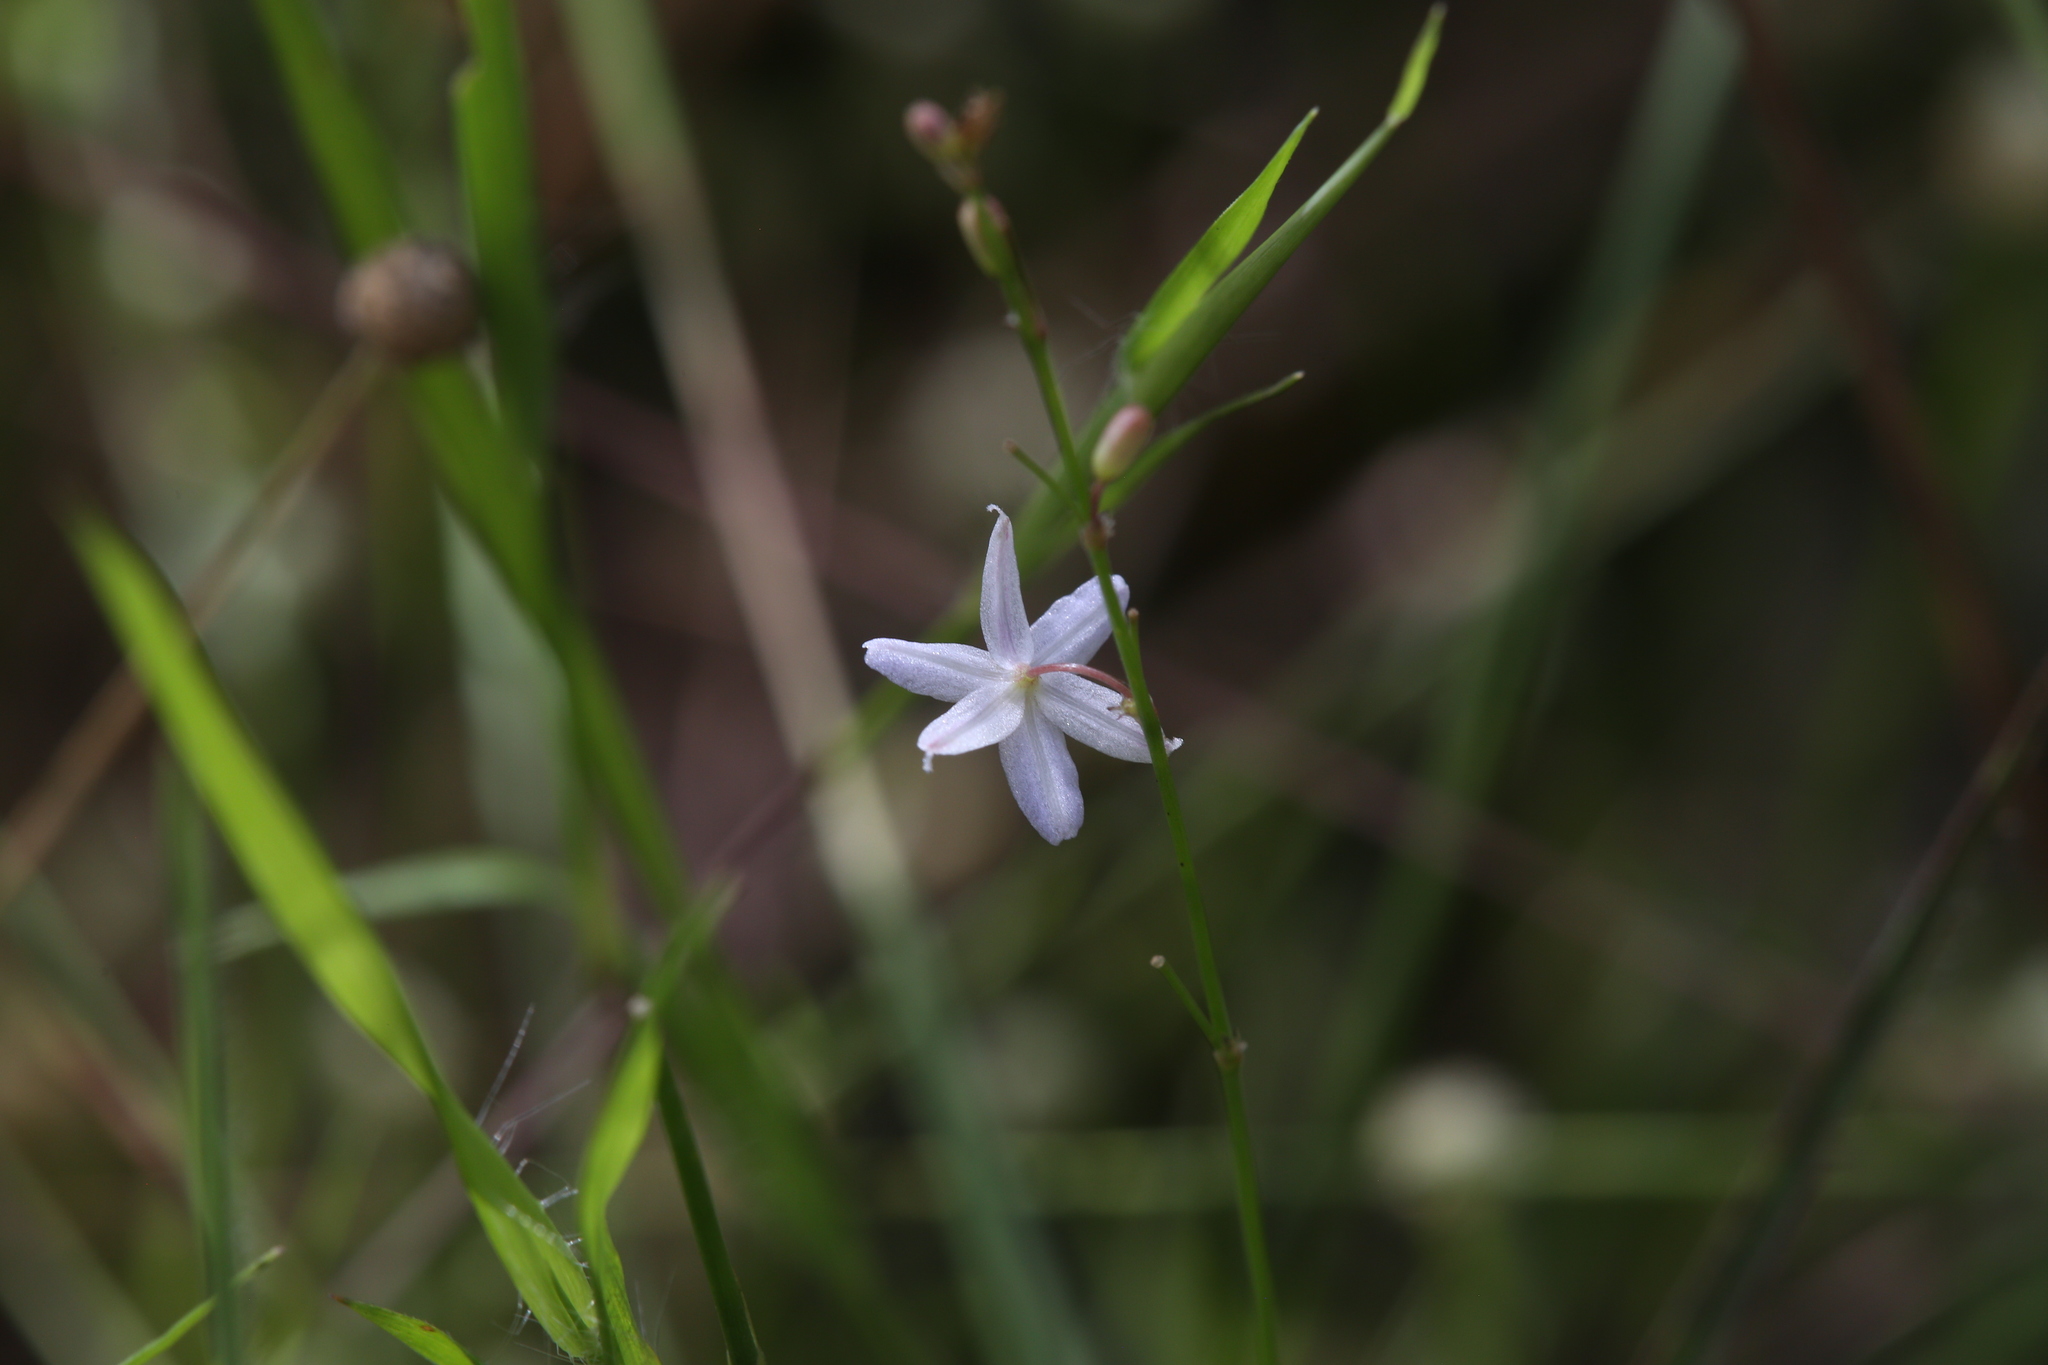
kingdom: Plantae
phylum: Tracheophyta
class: Liliopsida
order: Asparagales
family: Asphodelaceae
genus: Caesia
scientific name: Caesia setifera
